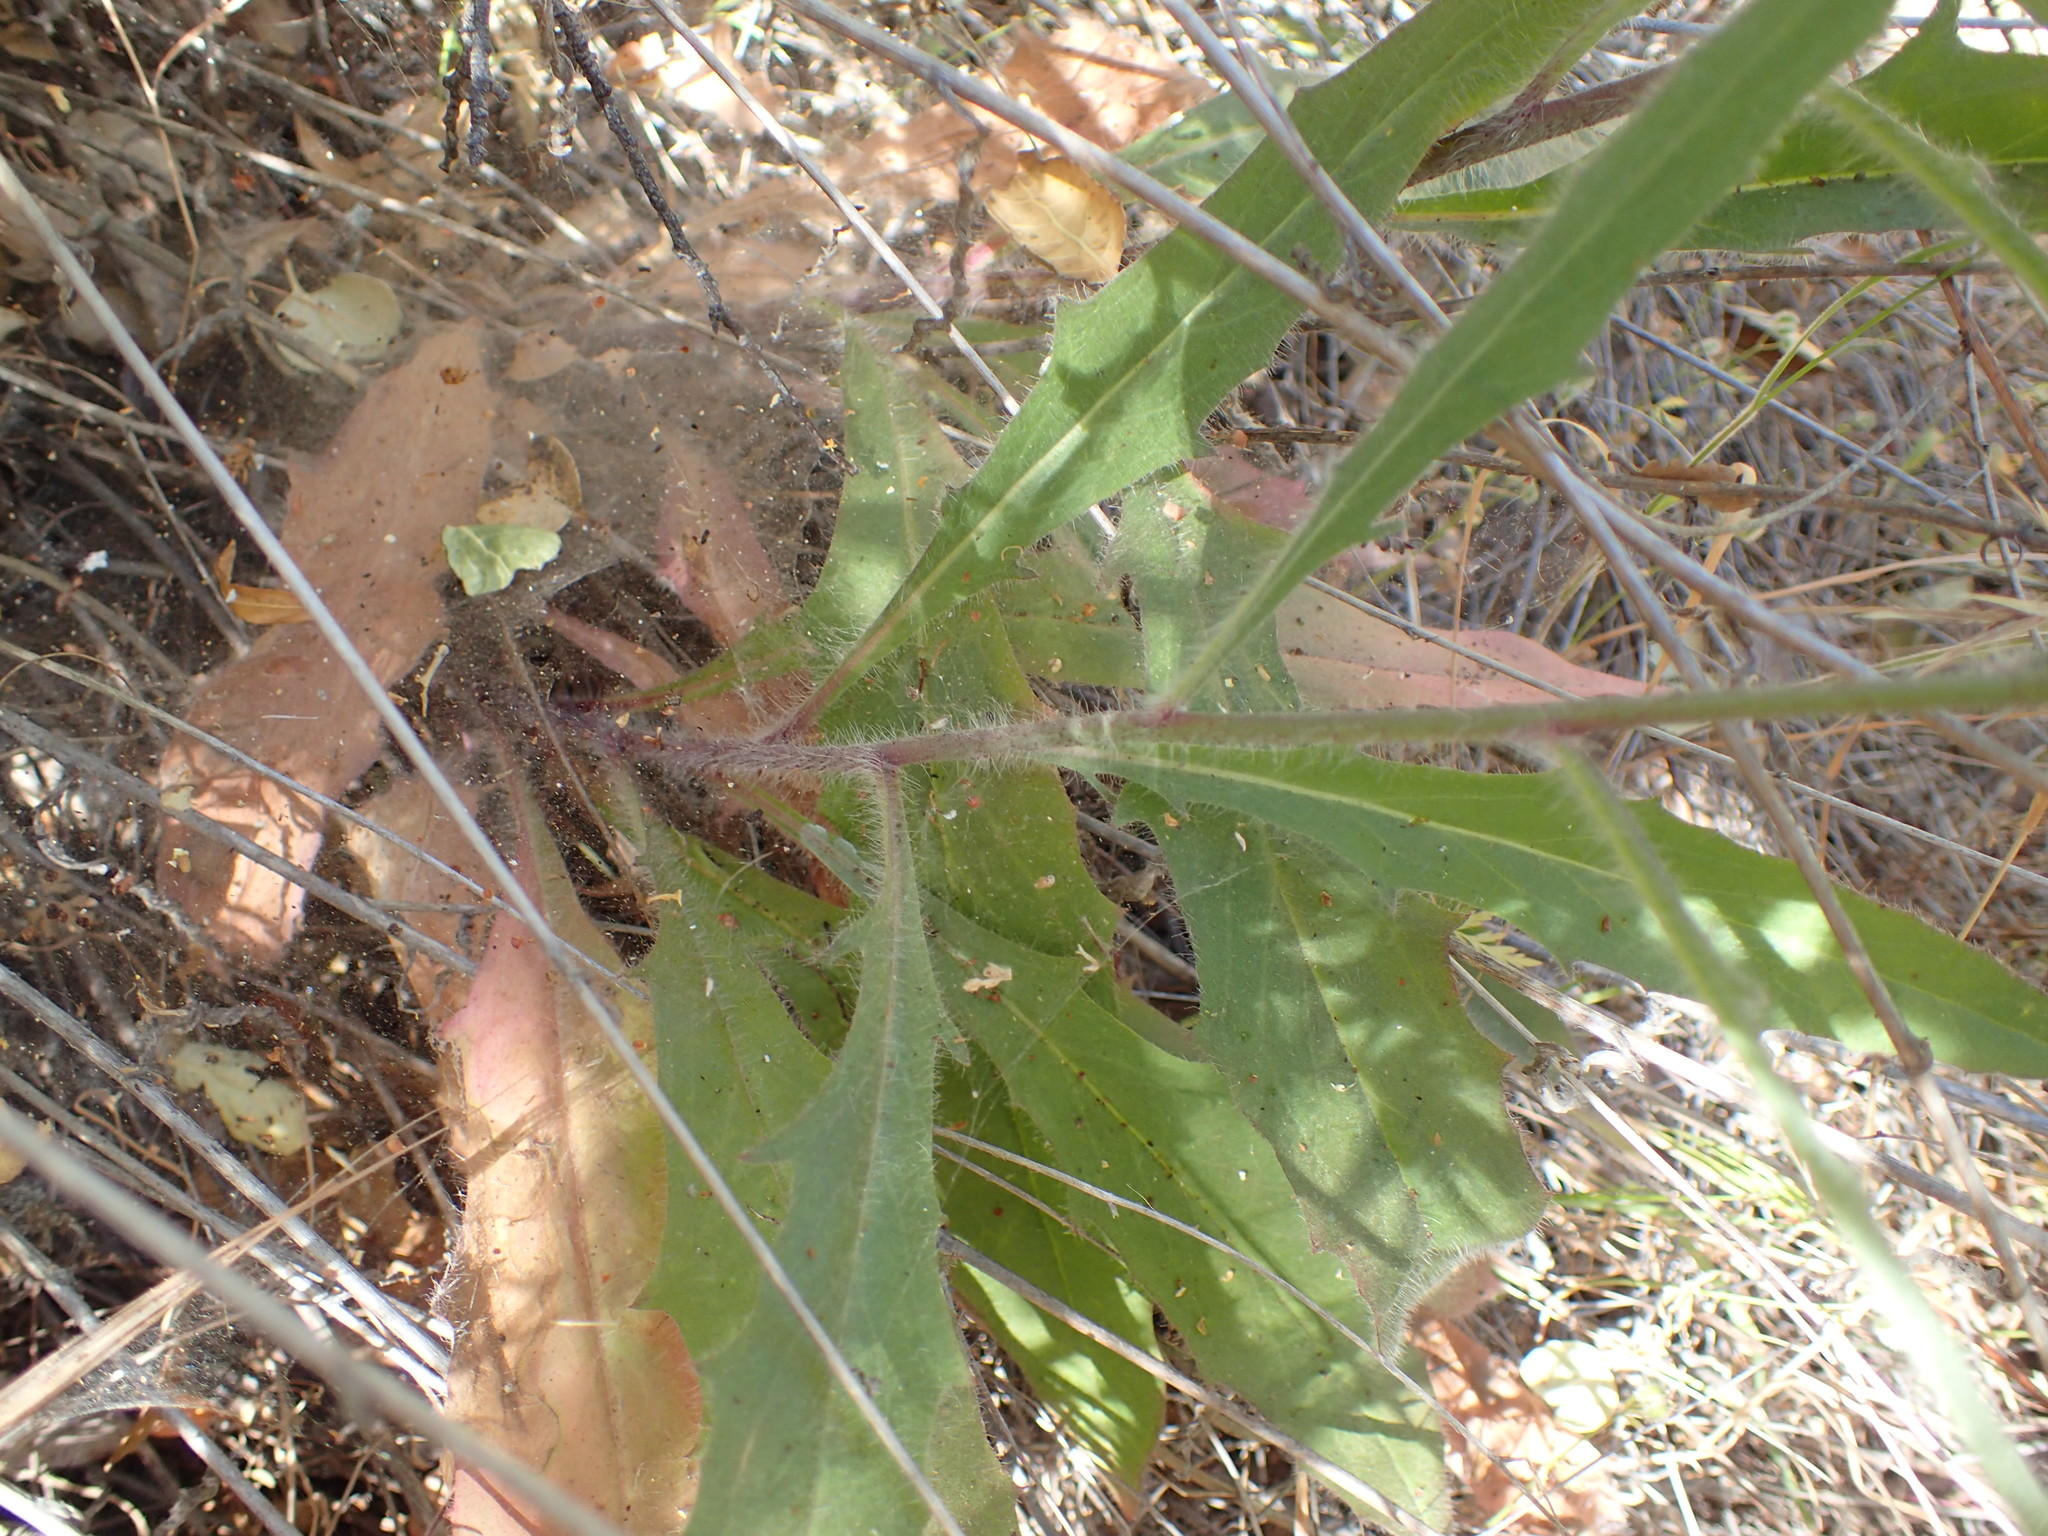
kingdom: Plantae
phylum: Tracheophyta
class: Magnoliopsida
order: Asterales
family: Asteraceae
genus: Hieracium
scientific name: Hieracium argutum
